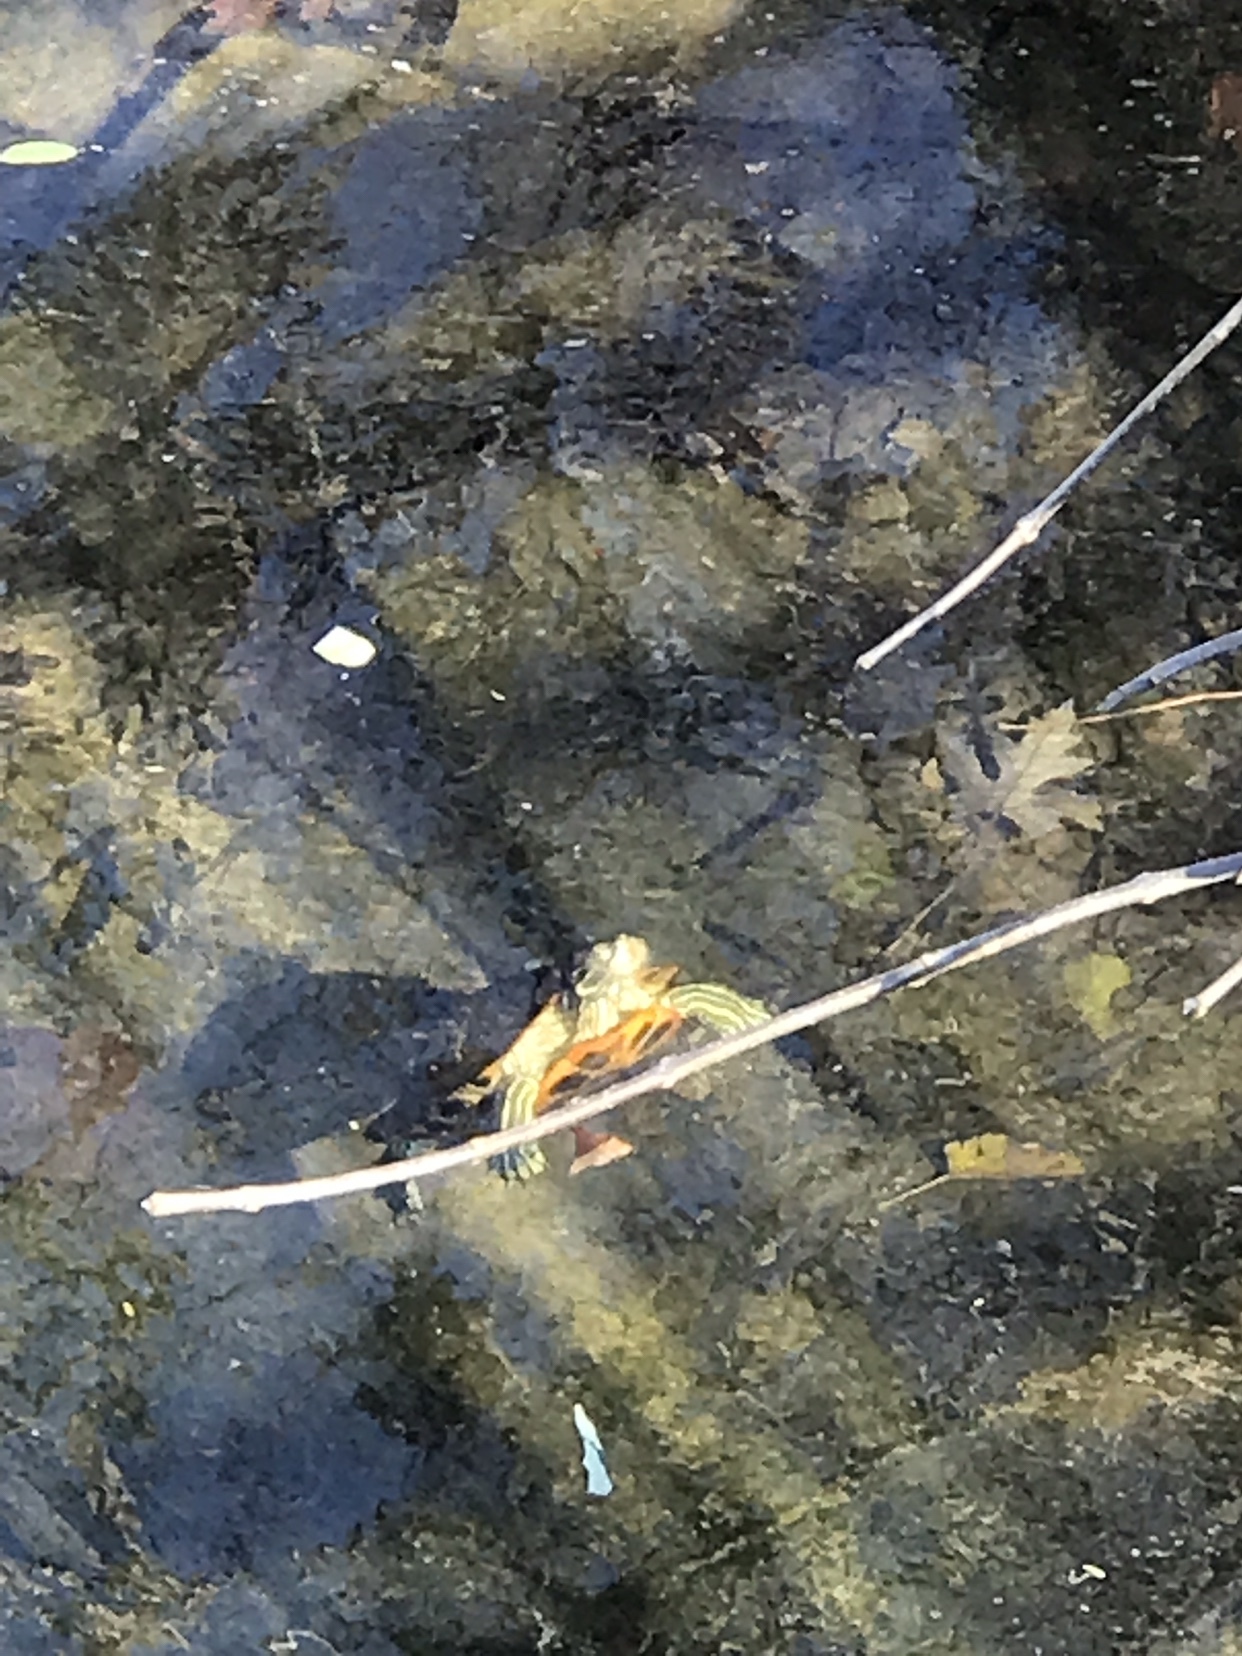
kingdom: Animalia
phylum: Chordata
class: Testudines
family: Emydidae
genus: Trachemys
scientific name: Trachemys scripta
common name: Slider
